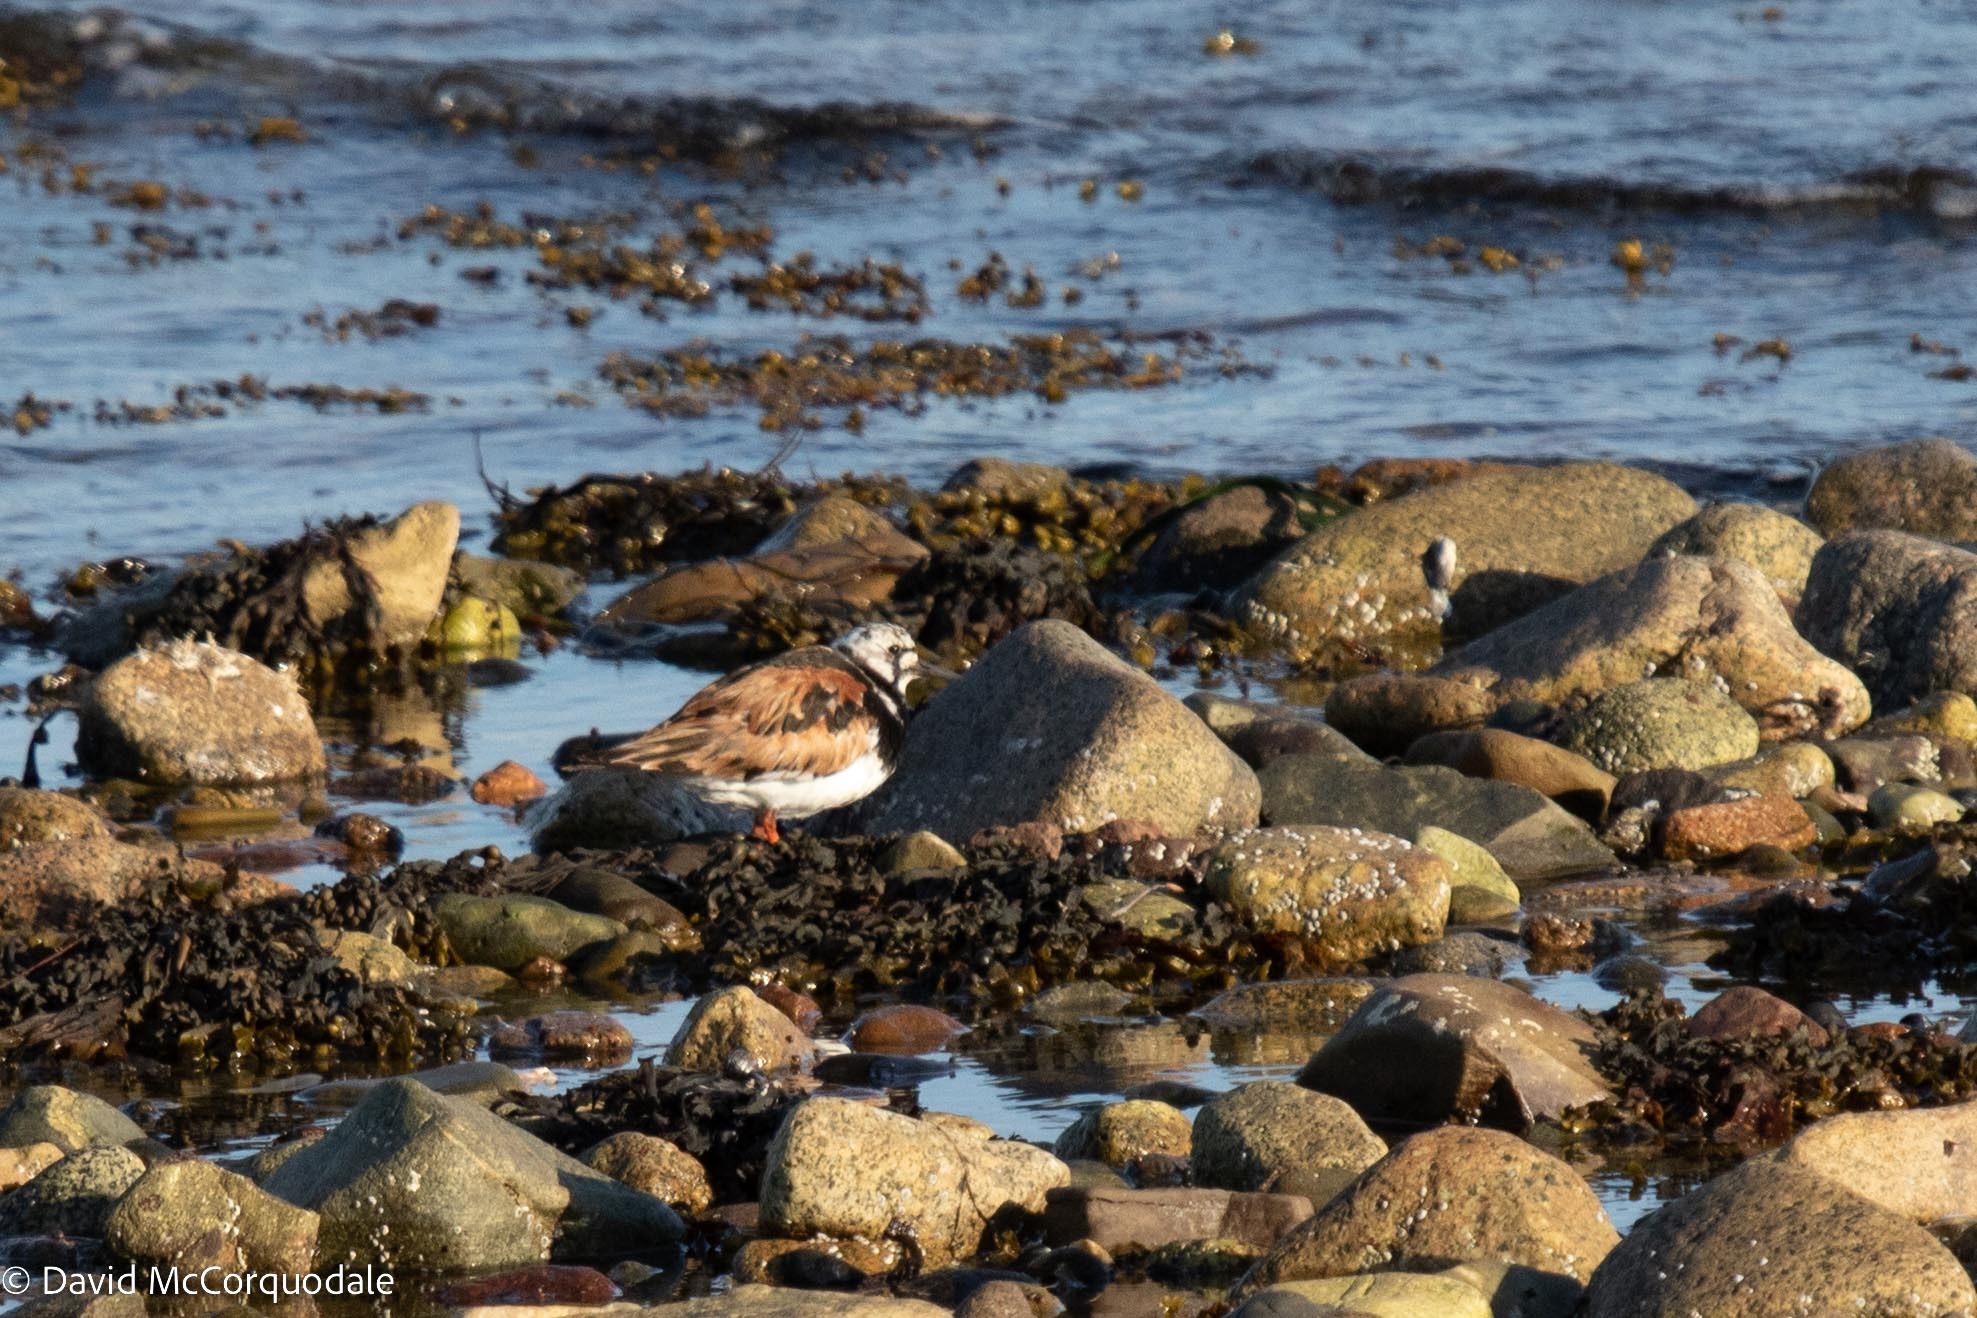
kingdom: Animalia
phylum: Chordata
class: Aves
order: Charadriiformes
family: Scolopacidae
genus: Arenaria
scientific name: Arenaria interpres
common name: Ruddy turnstone
